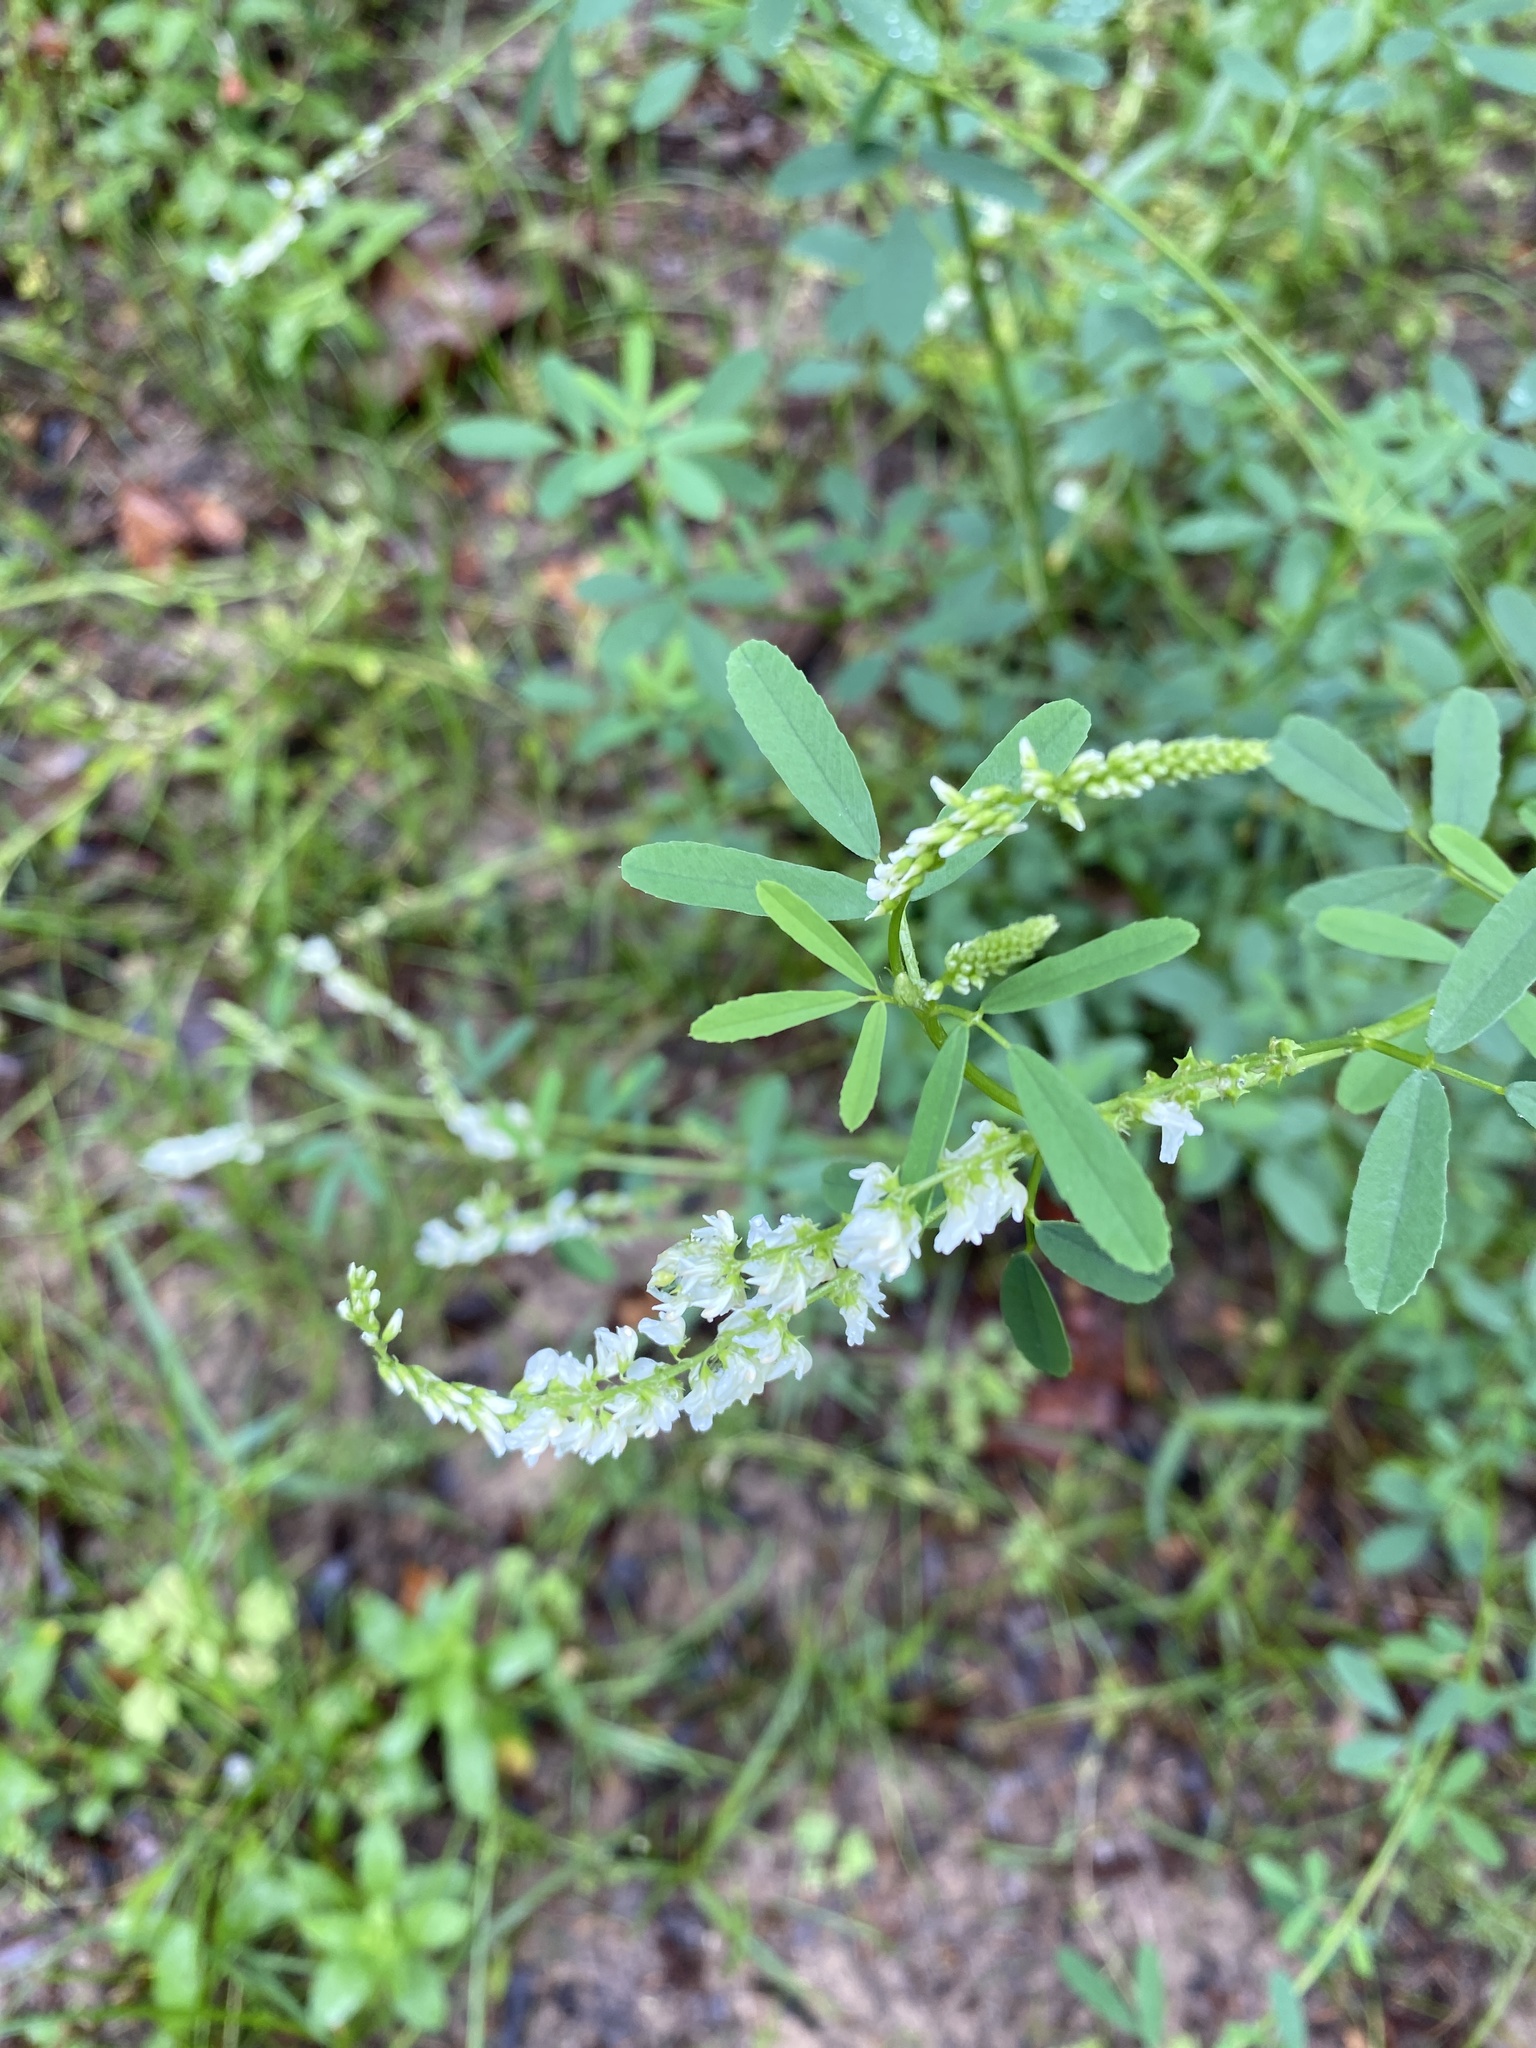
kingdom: Plantae
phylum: Tracheophyta
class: Magnoliopsida
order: Fabales
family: Fabaceae
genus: Melilotus
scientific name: Melilotus albus
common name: White melilot
